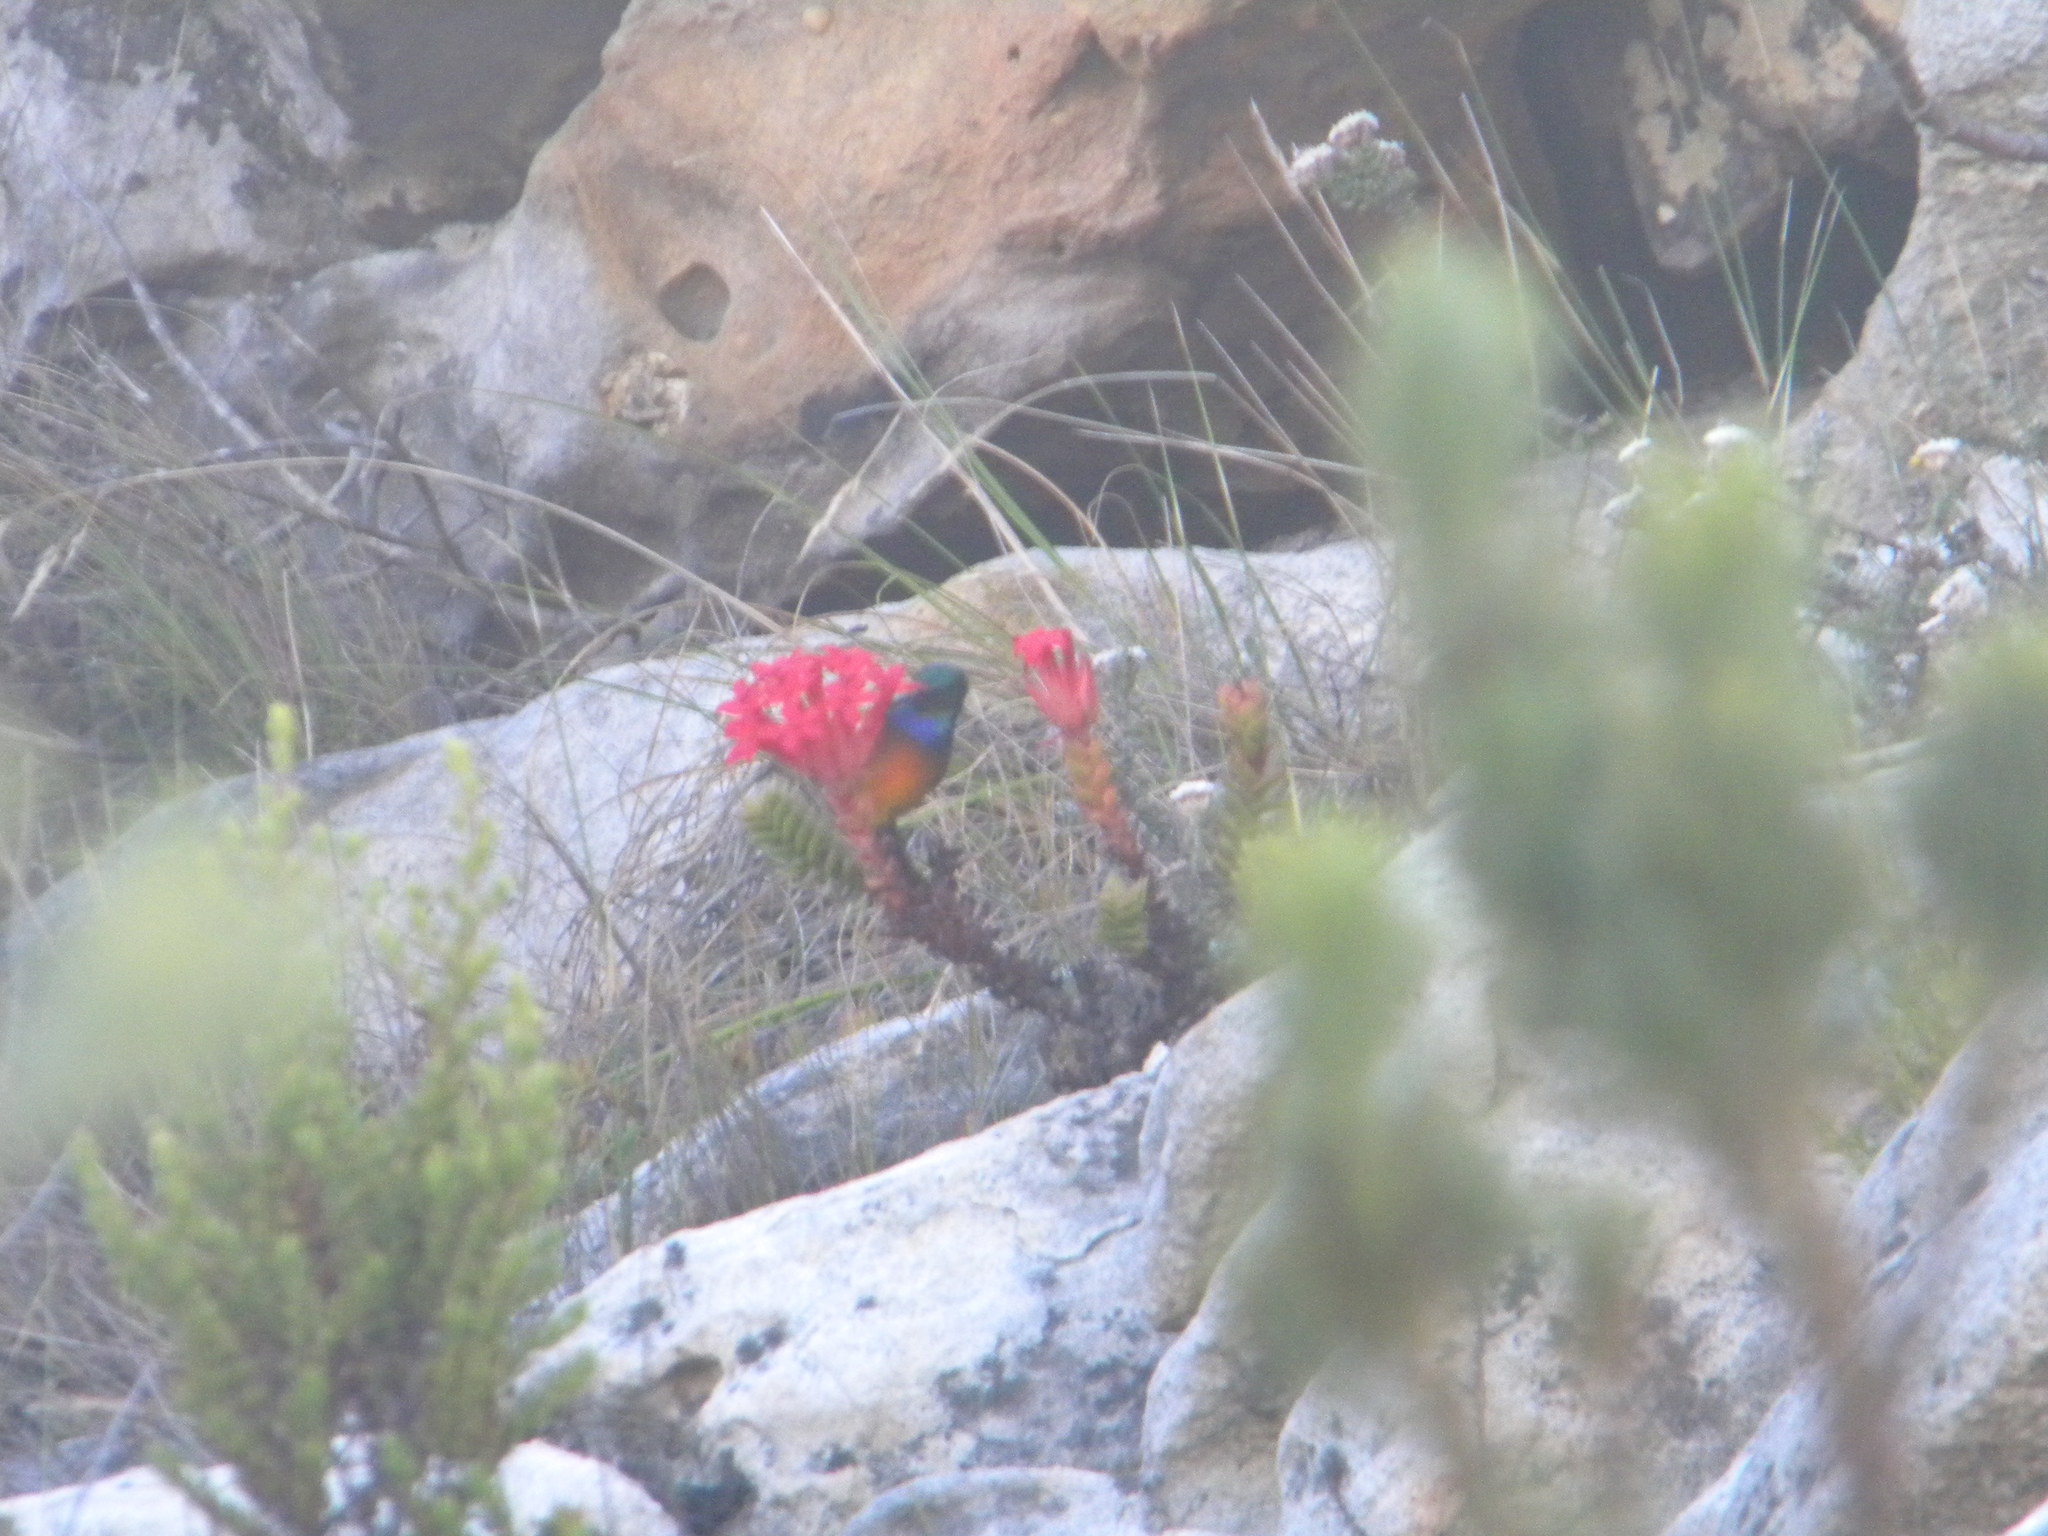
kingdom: Animalia
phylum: Chordata
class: Aves
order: Passeriformes
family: Nectariniidae
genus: Anthobaphes
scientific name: Anthobaphes violacea
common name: Orange-breasted sunbird
